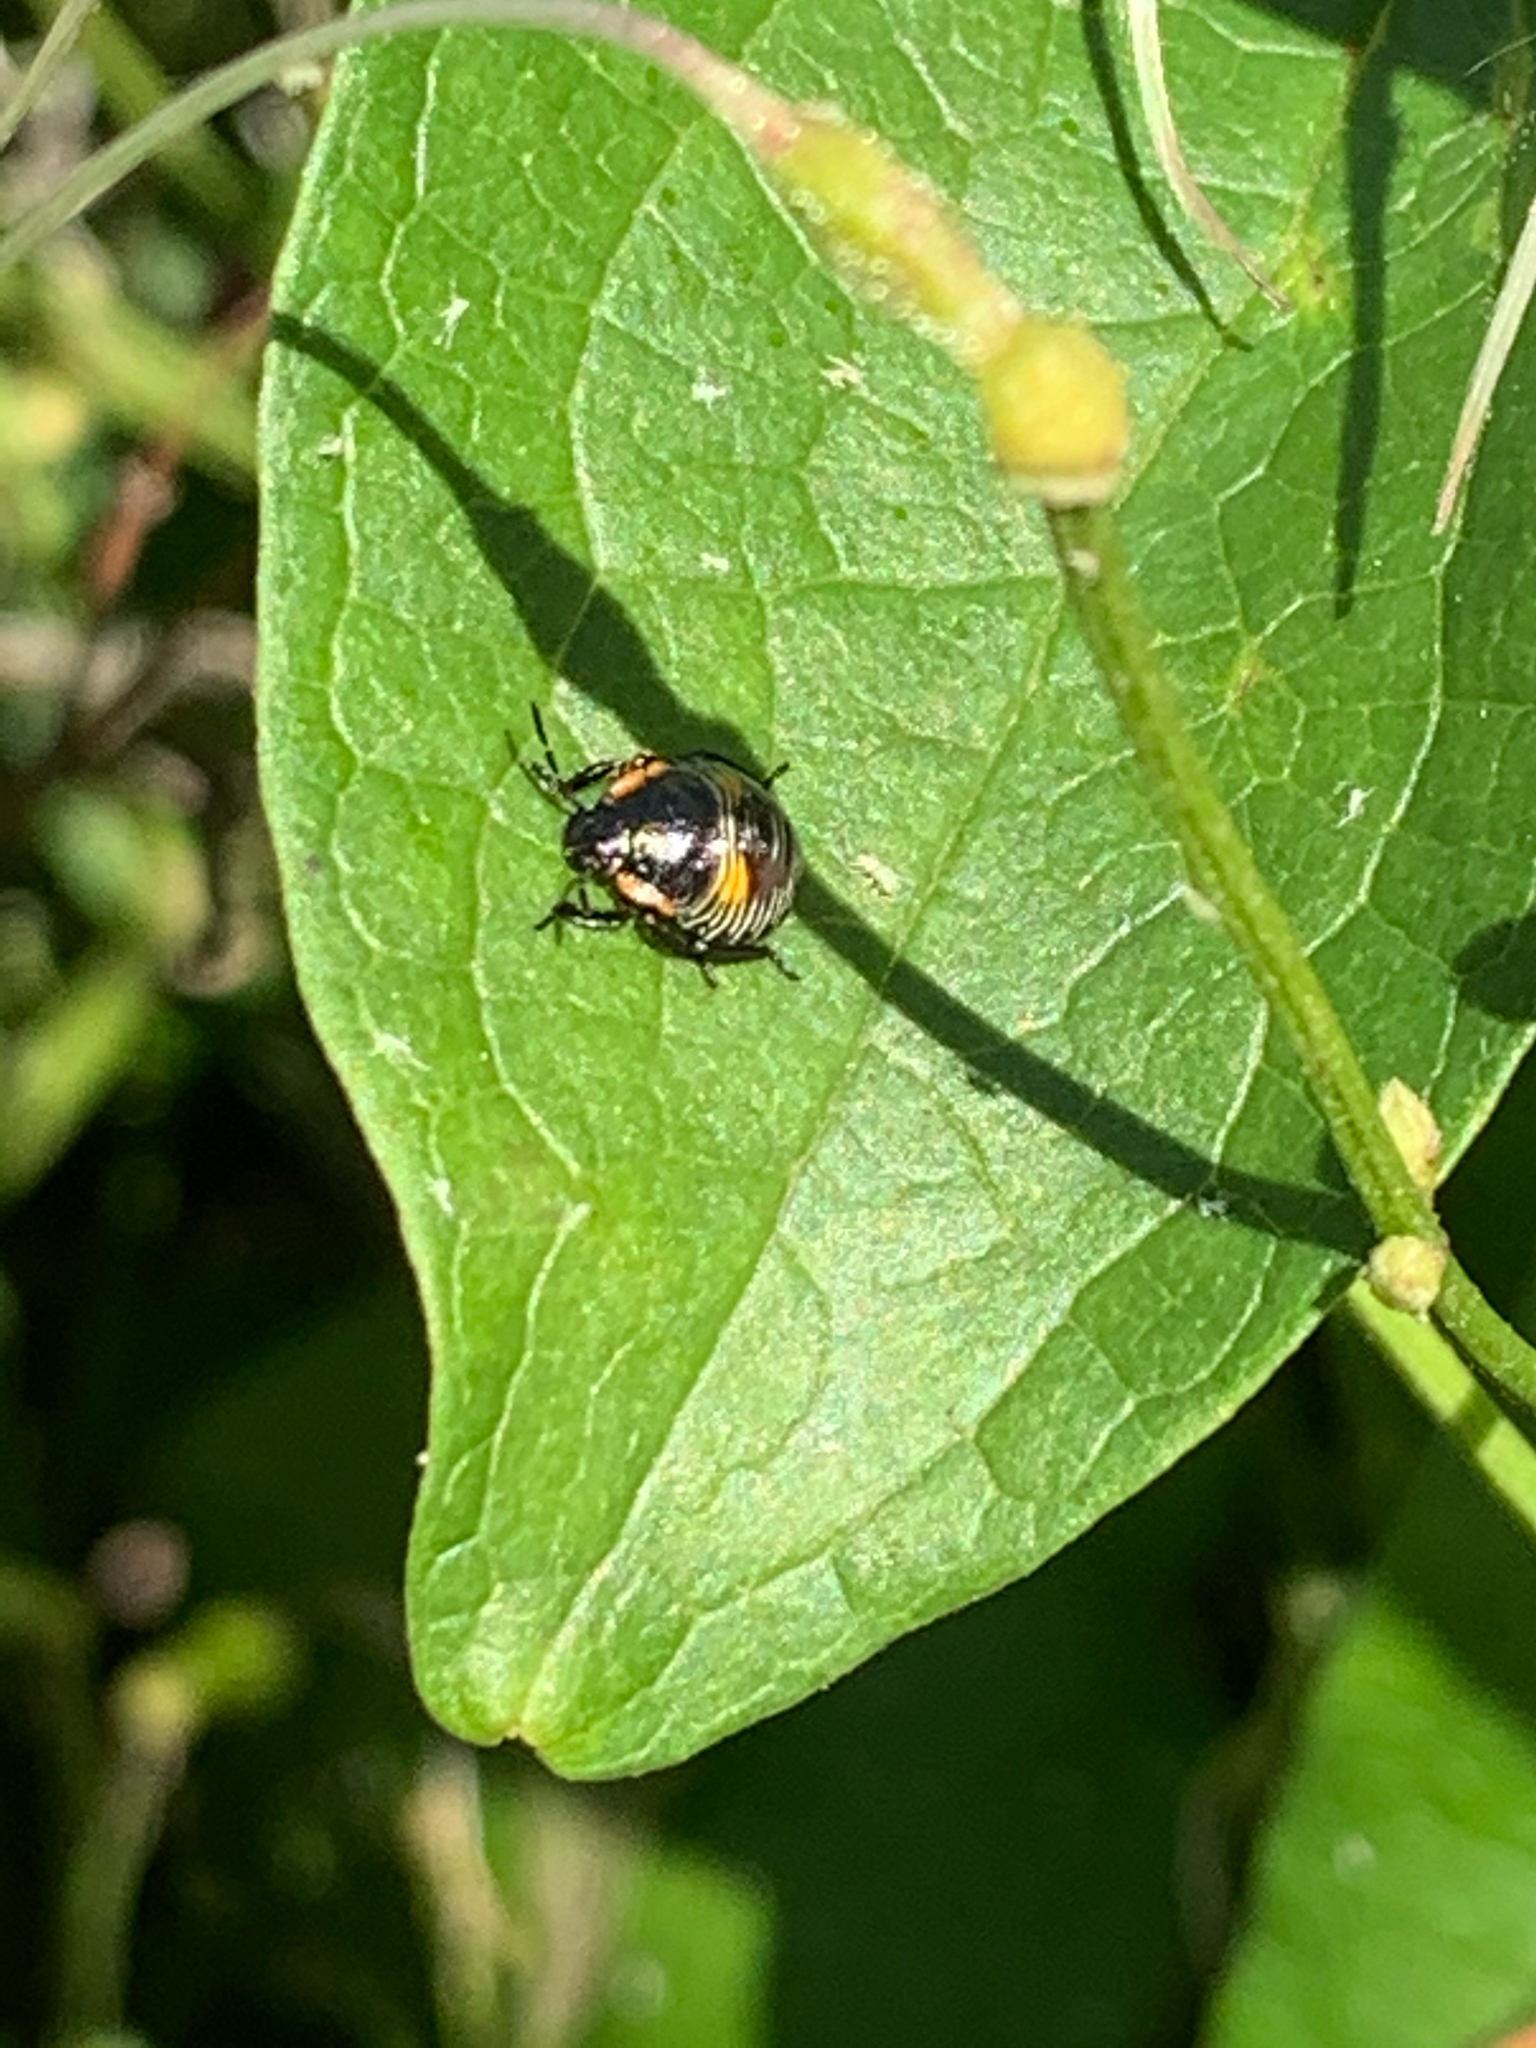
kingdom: Animalia
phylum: Arthropoda
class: Insecta
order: Hemiptera
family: Pentatomidae
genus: Chinavia
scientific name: Chinavia hilaris
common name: Green stink bug
